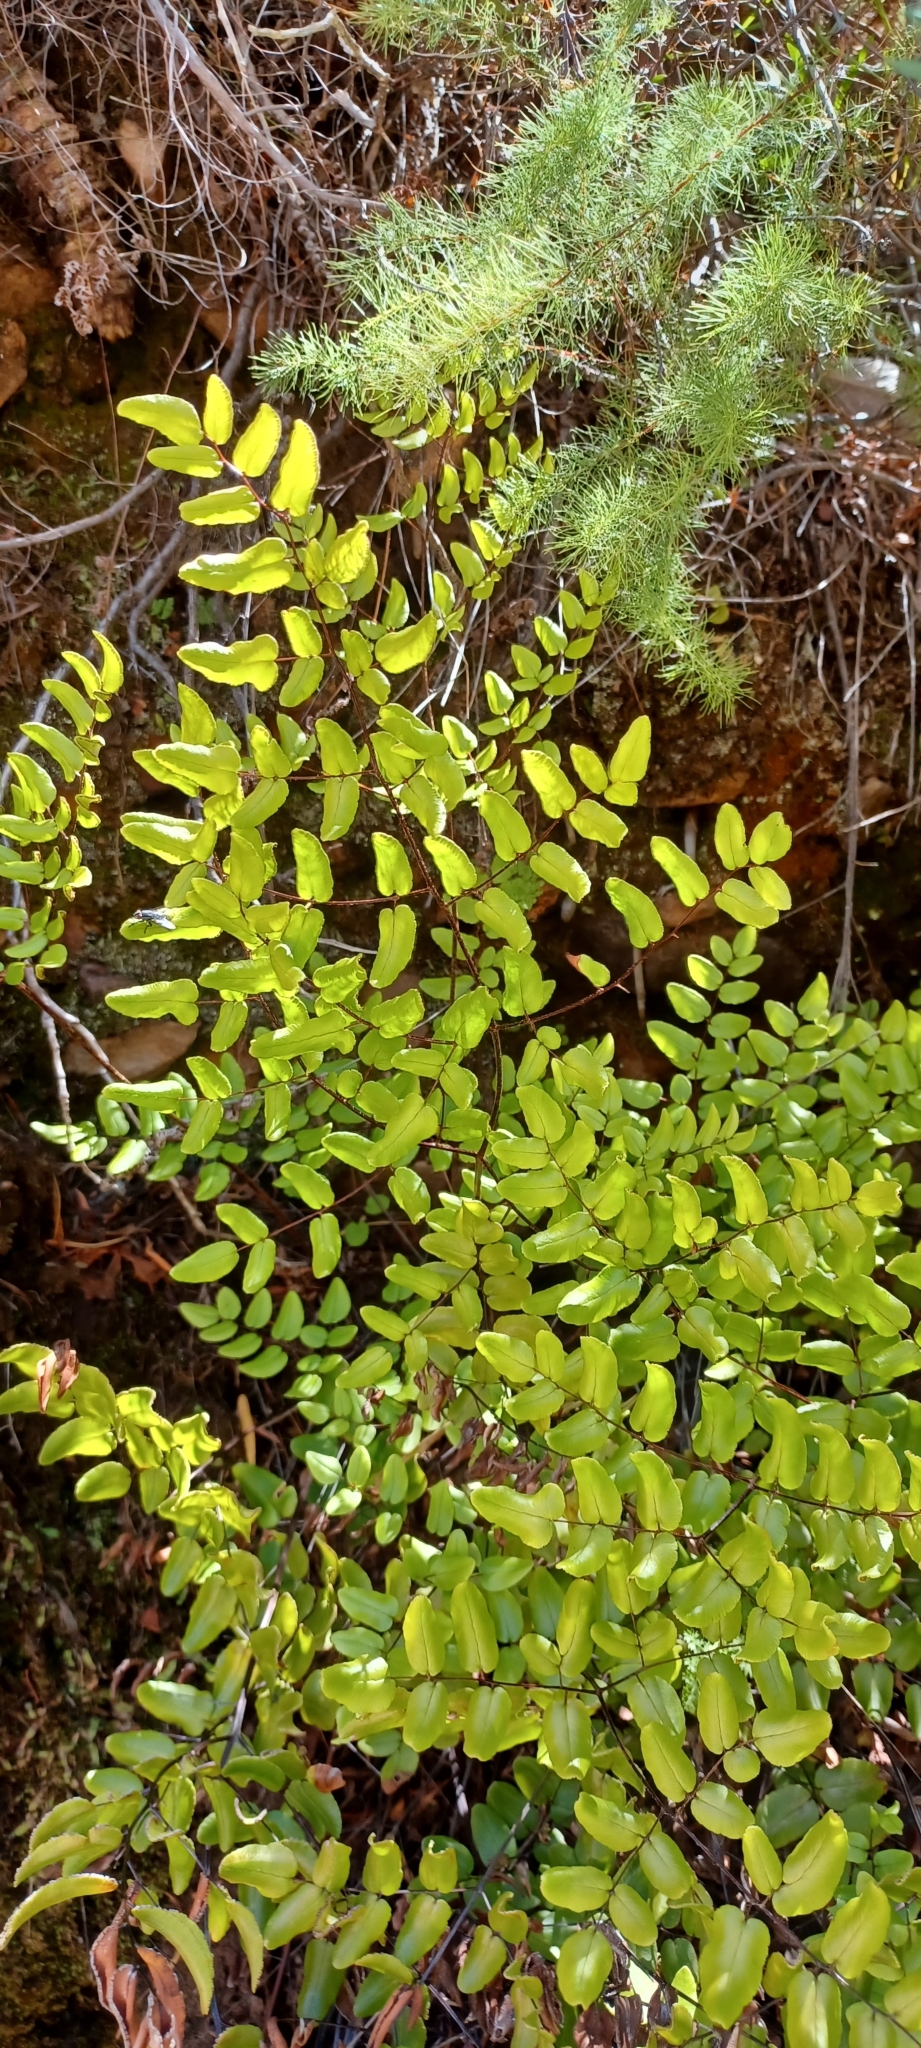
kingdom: Plantae
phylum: Tracheophyta
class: Polypodiopsida
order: Polypodiales
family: Pteridaceae
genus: Pellaea
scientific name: Pellaea pteroides
